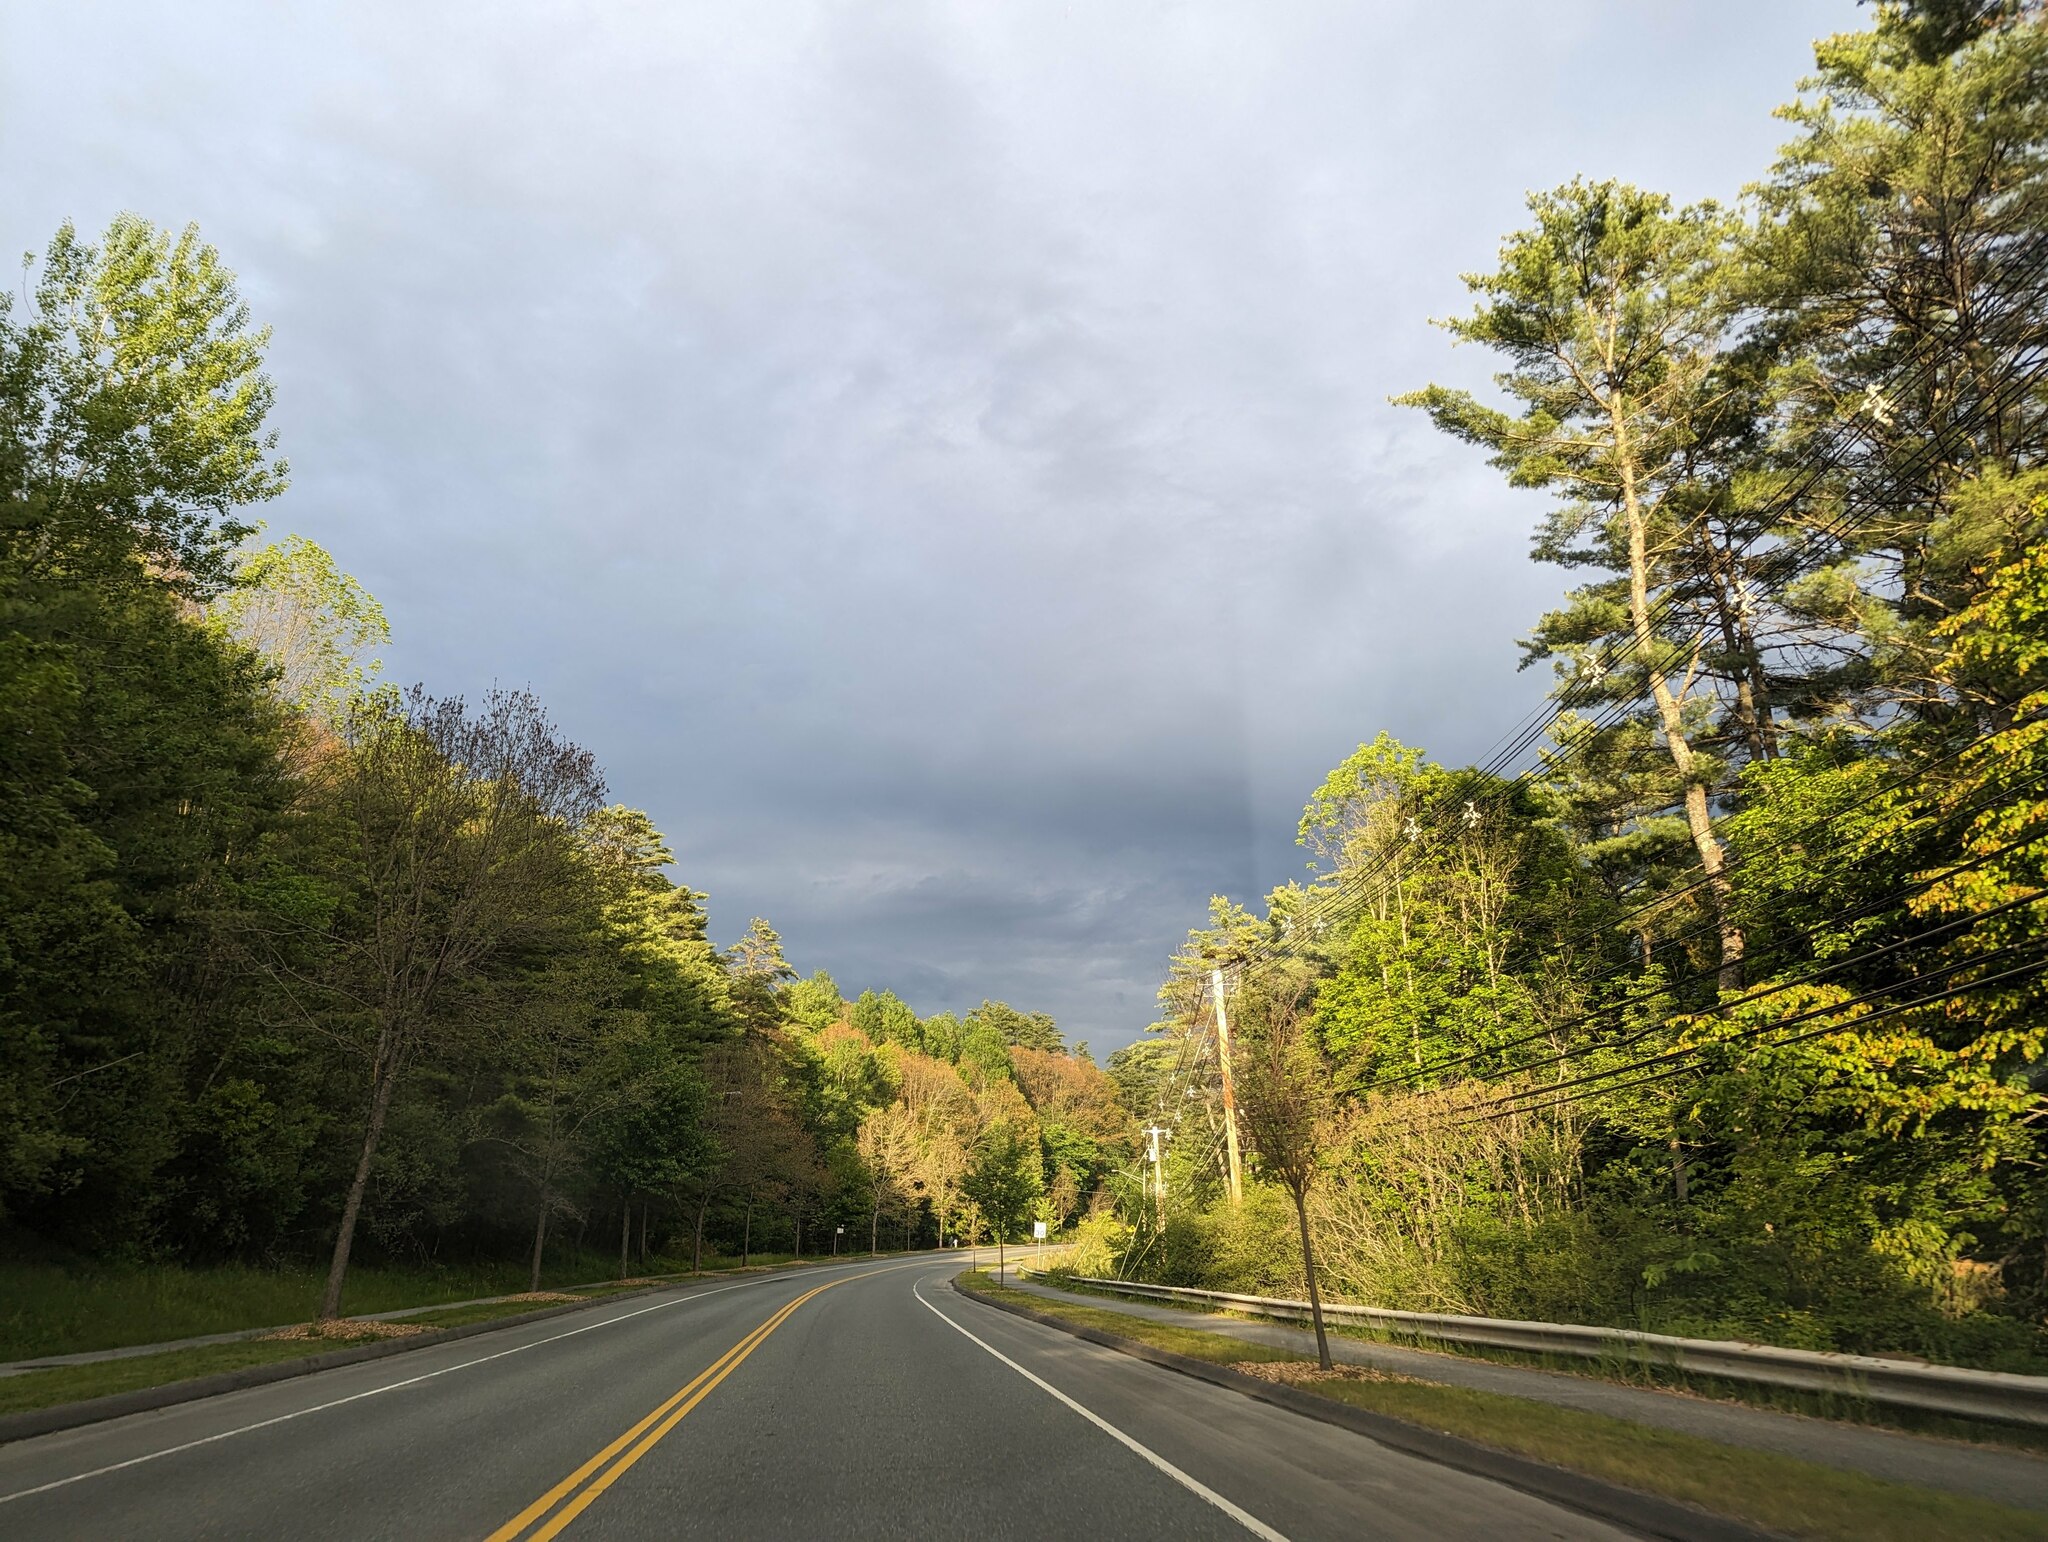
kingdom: Plantae
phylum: Tracheophyta
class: Pinopsida
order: Pinales
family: Pinaceae
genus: Pinus
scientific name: Pinus strobus
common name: Weymouth pine
